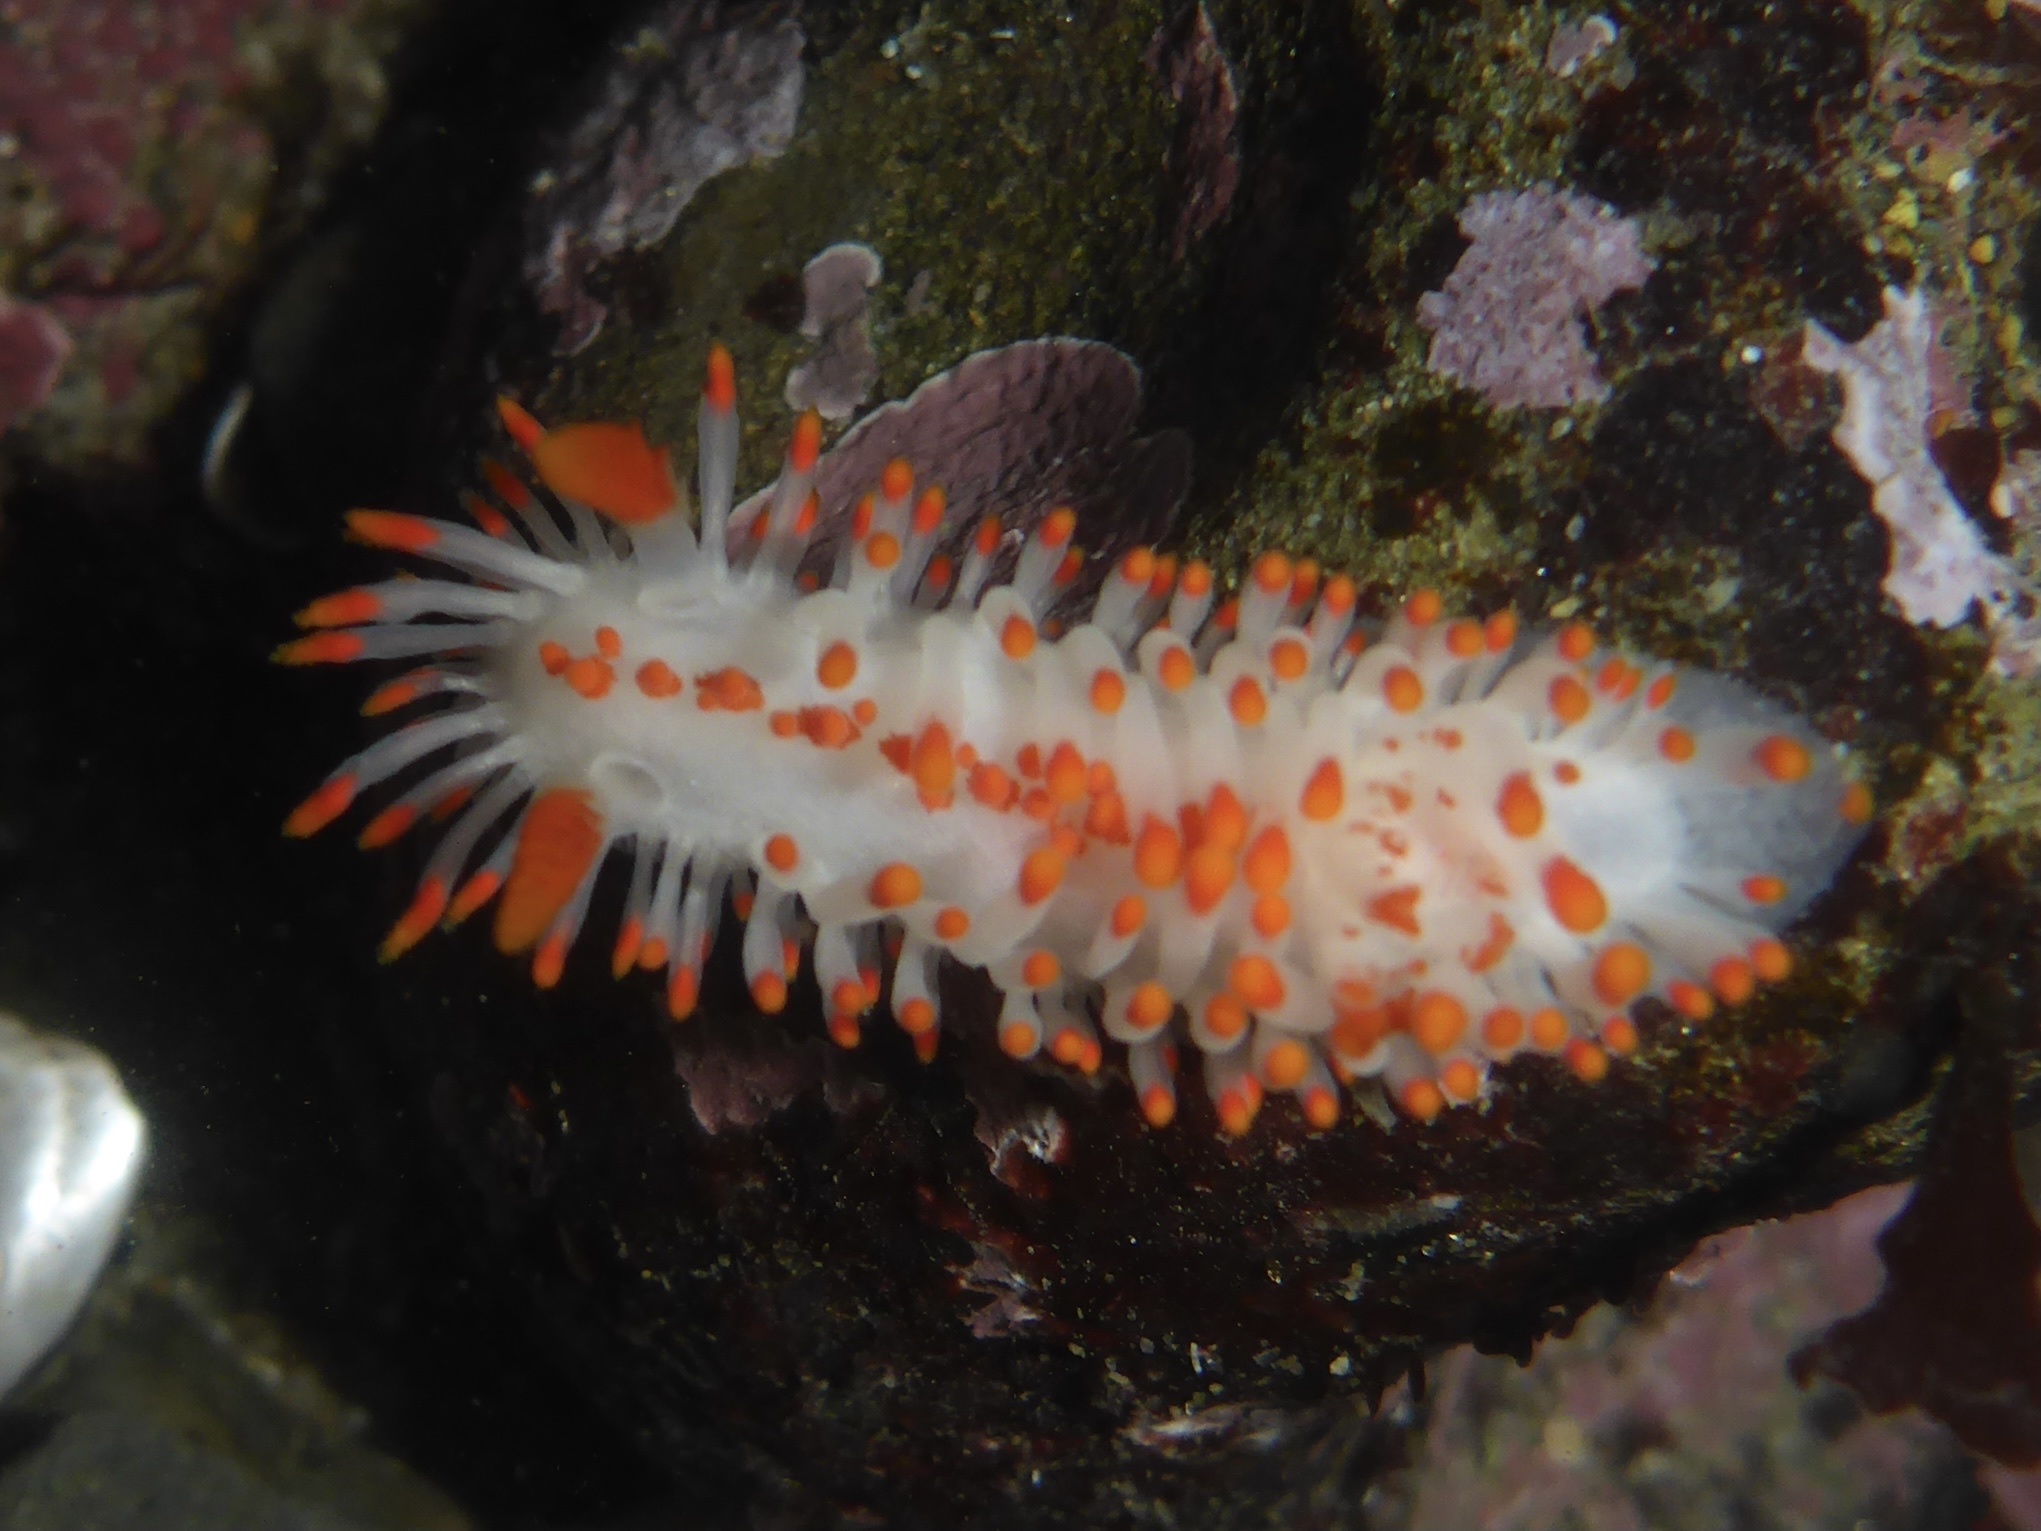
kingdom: Animalia
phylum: Mollusca
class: Gastropoda
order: Nudibranchia
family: Polyceridae
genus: Limacia
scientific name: Limacia mcdonaldi
